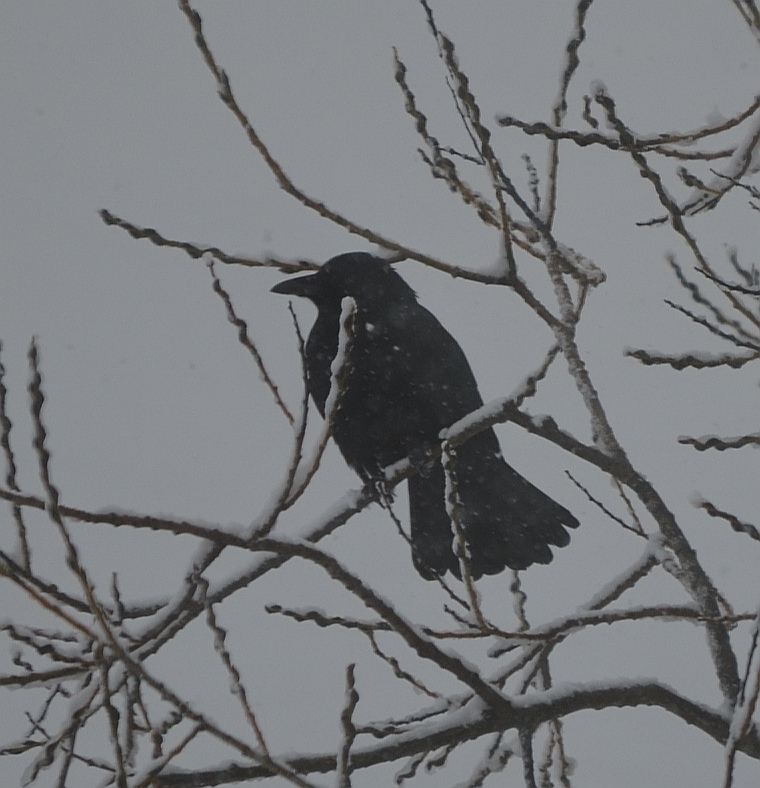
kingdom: Animalia
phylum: Chordata
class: Aves
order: Passeriformes
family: Corvidae
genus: Corvus
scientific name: Corvus corone
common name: Carrion crow
